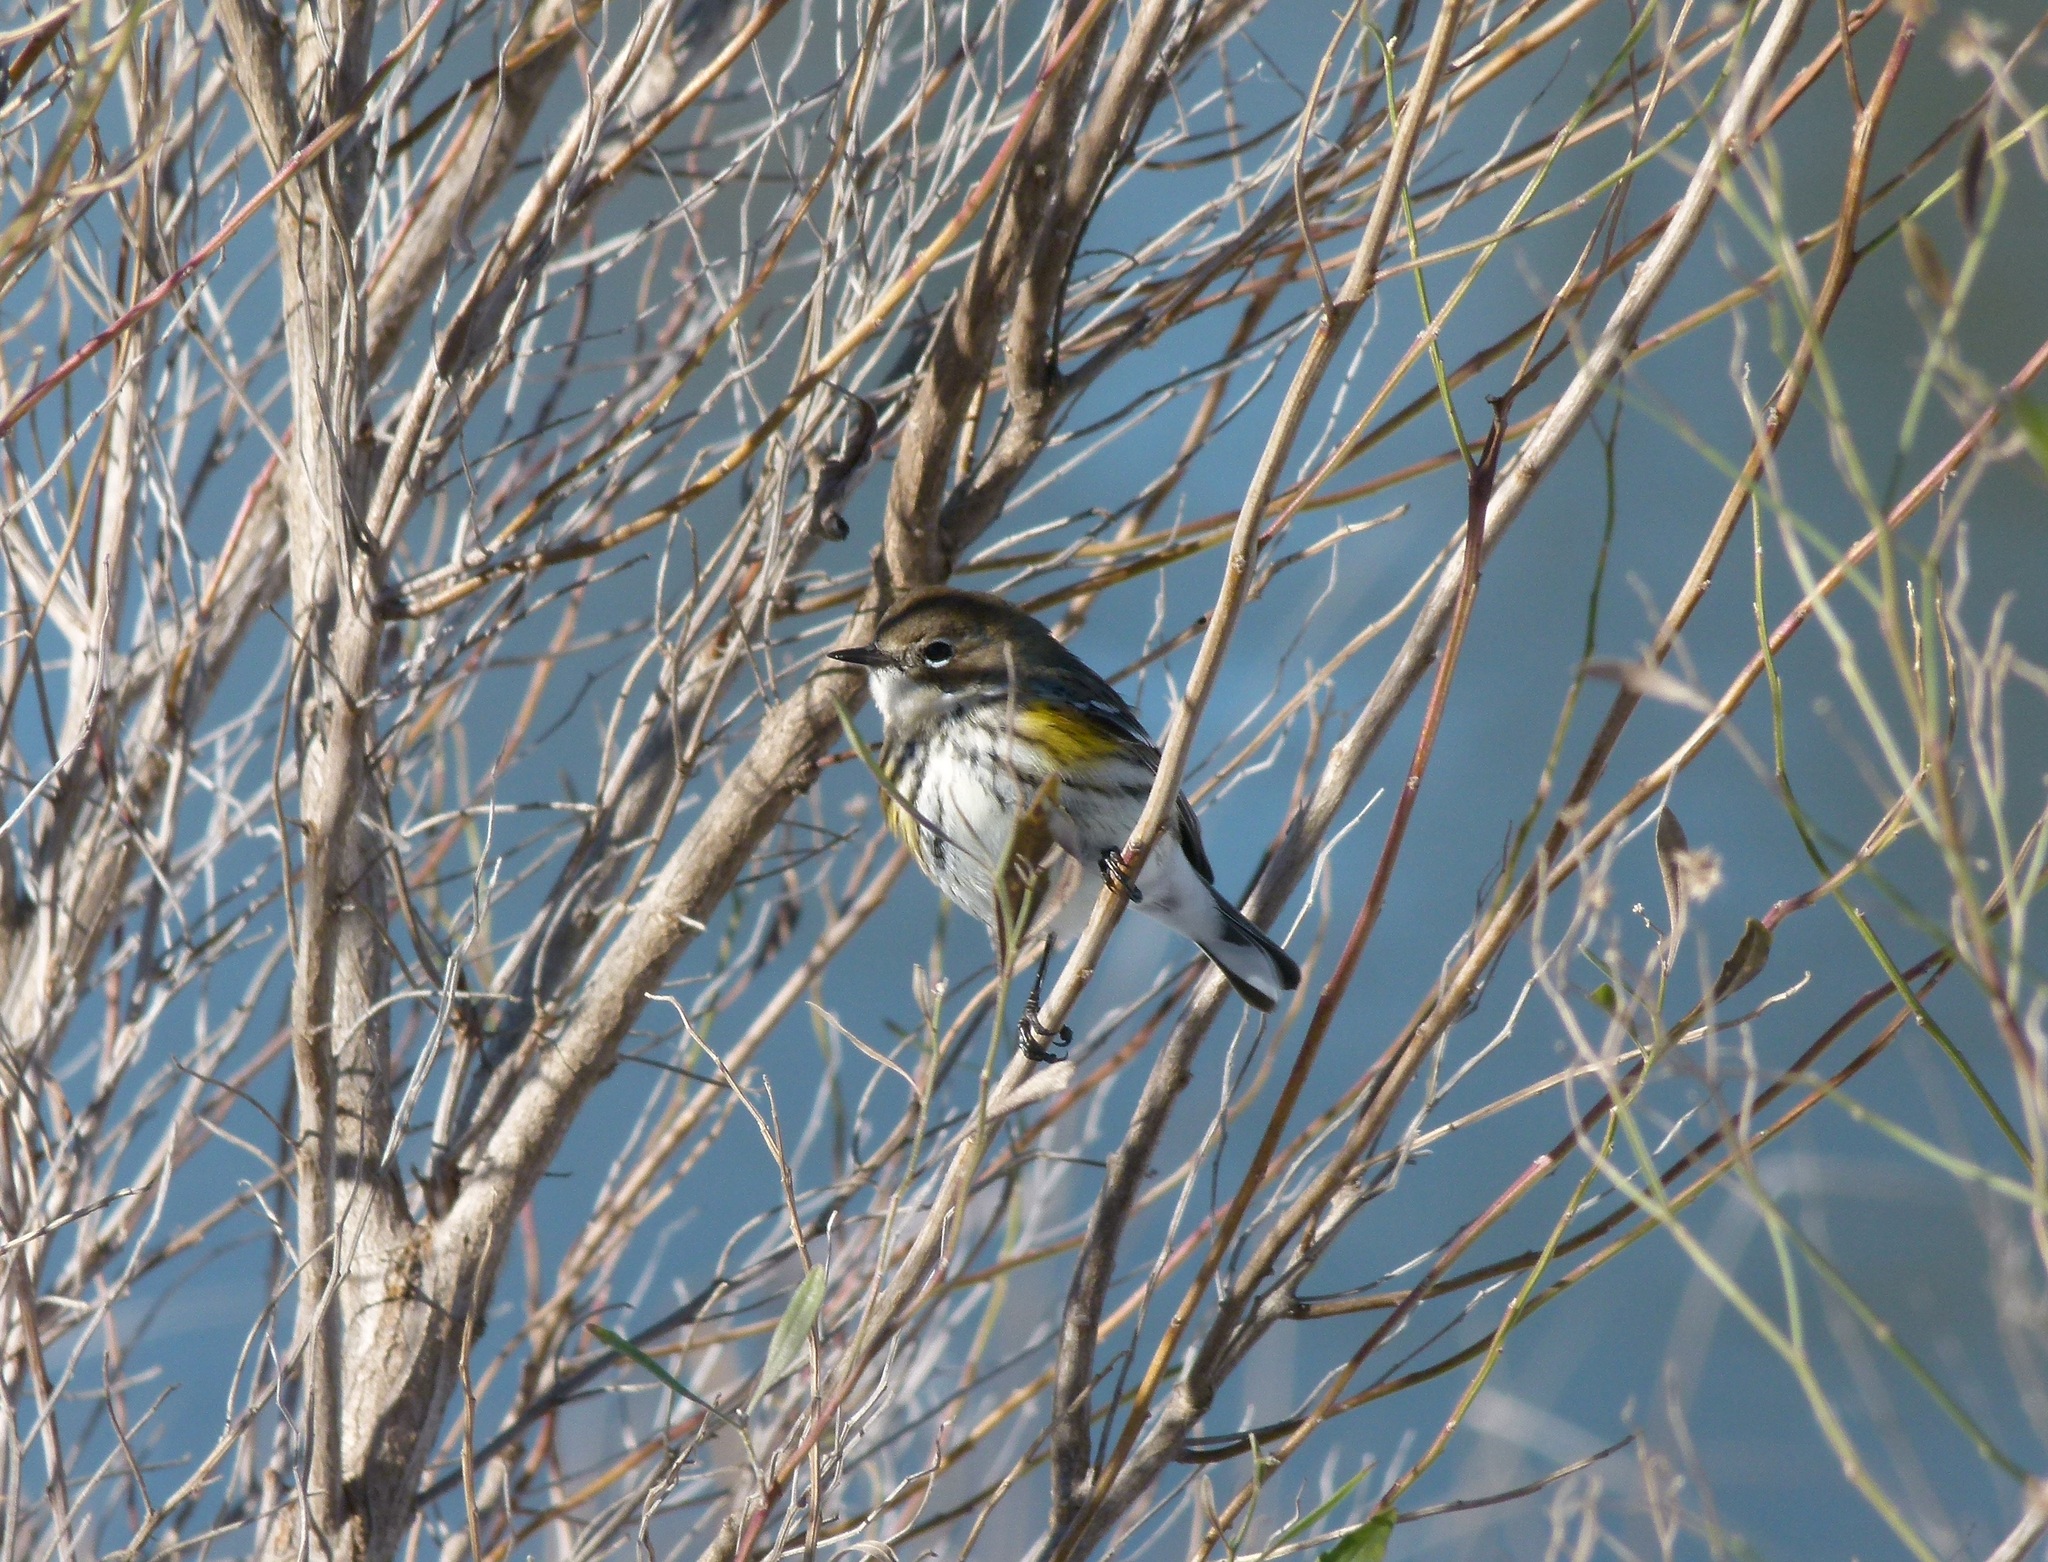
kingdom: Animalia
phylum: Chordata
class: Aves
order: Passeriformes
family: Parulidae
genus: Setophaga
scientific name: Setophaga coronata
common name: Myrtle warbler
